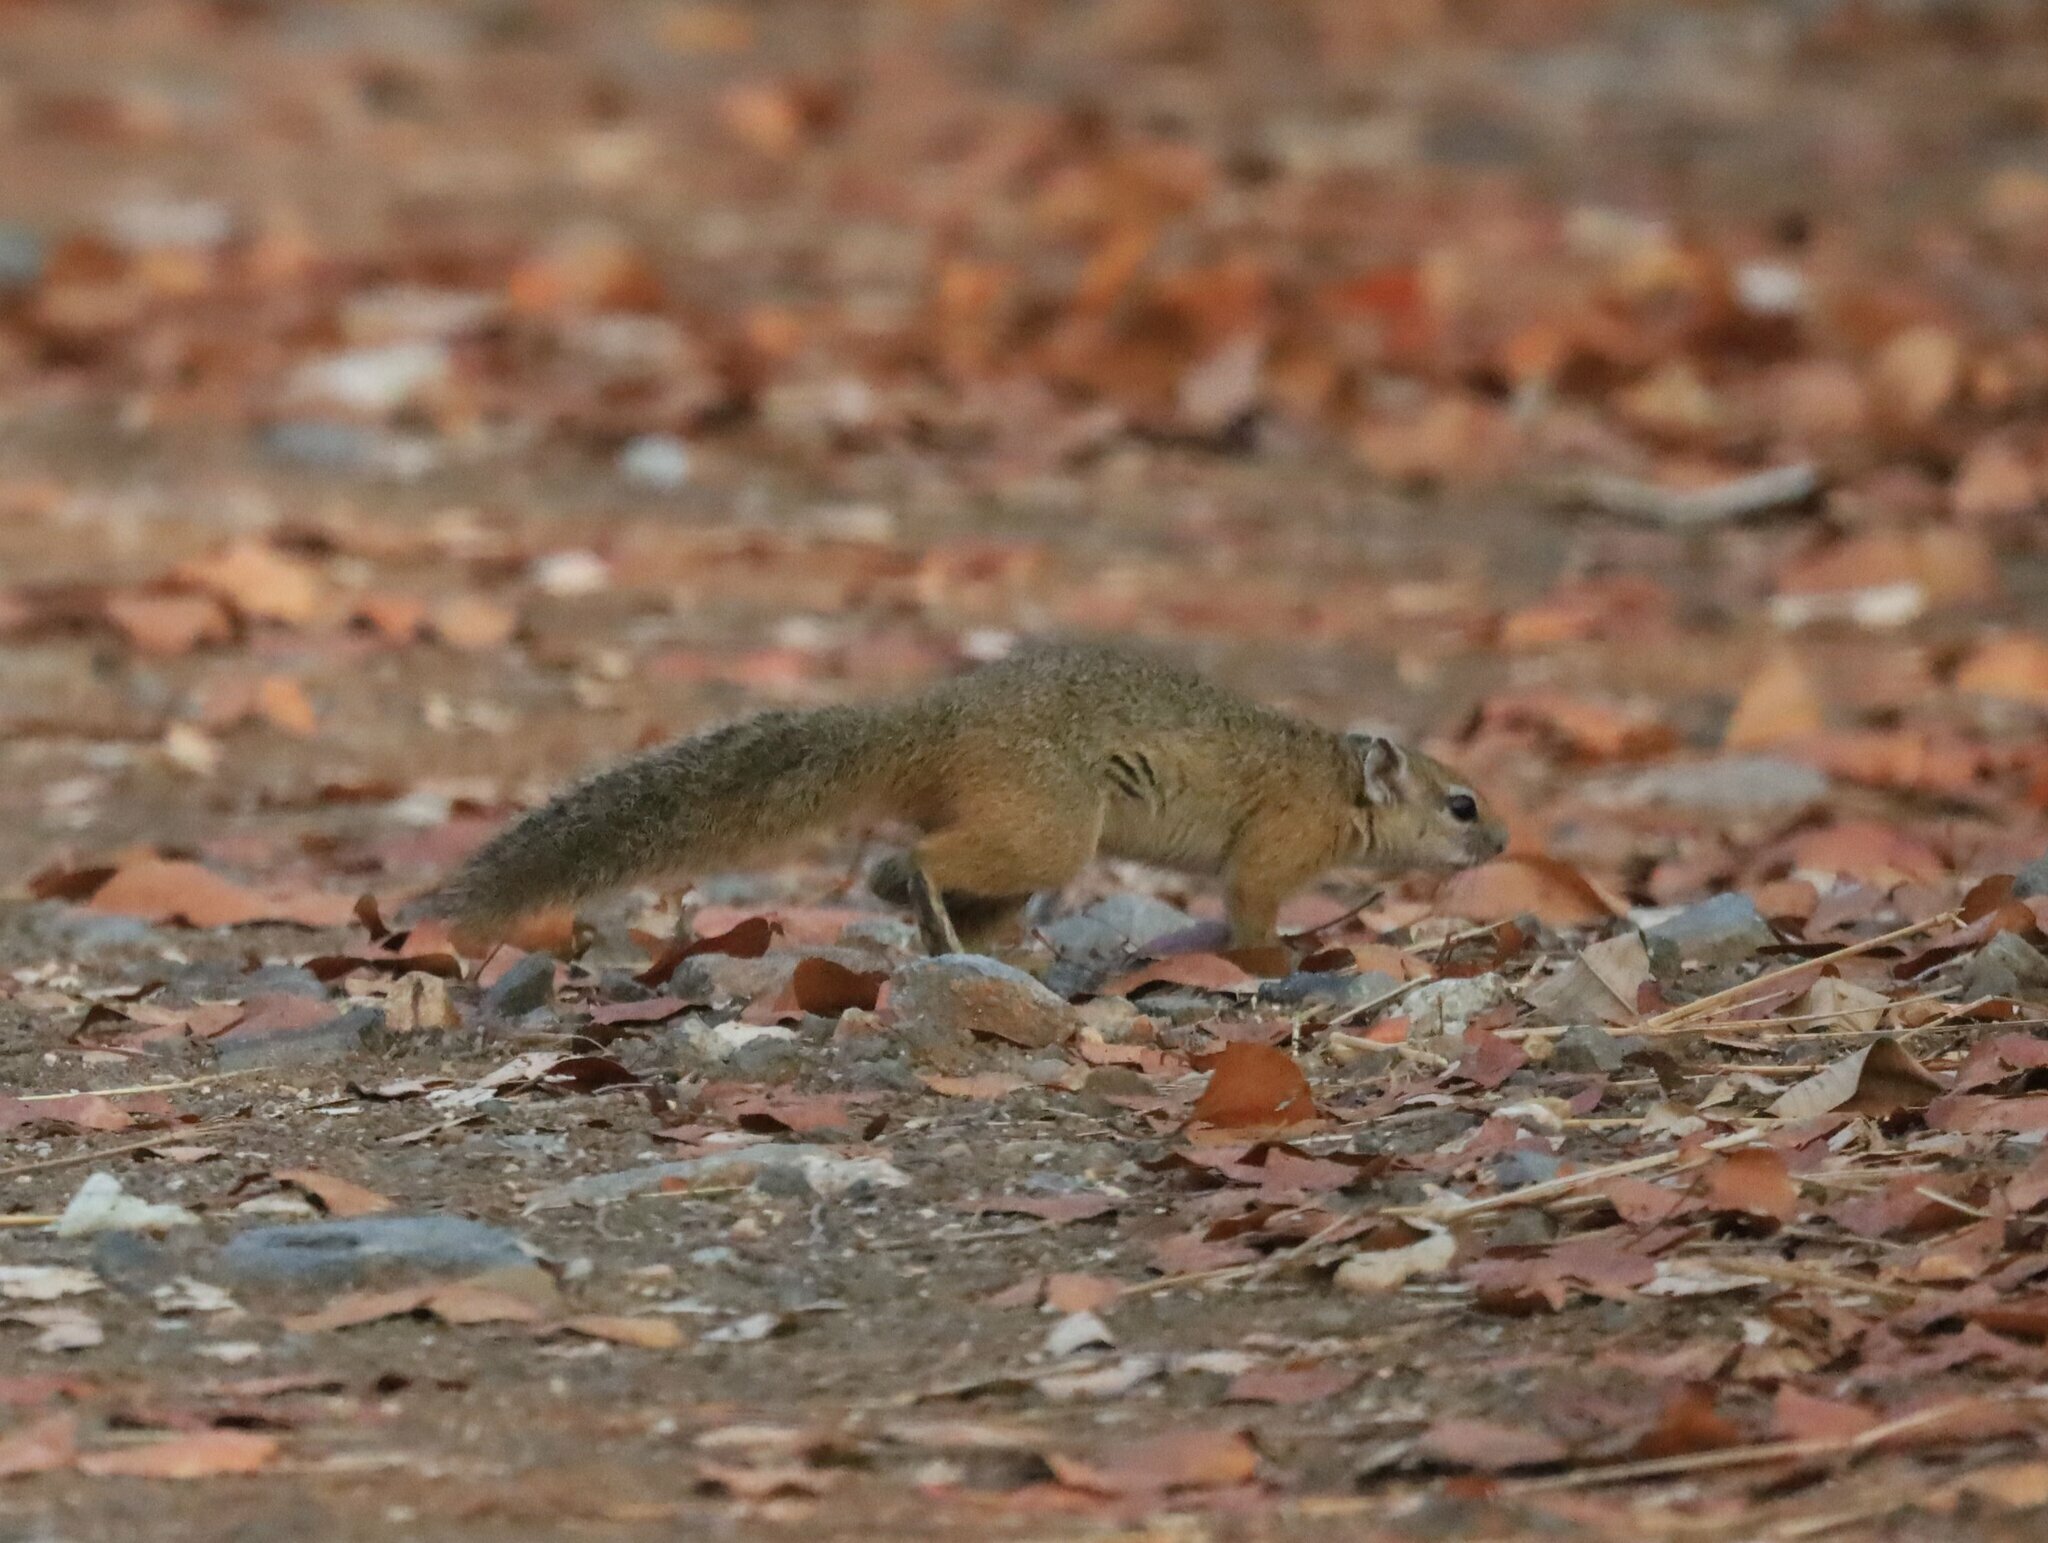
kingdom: Animalia
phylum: Chordata
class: Mammalia
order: Rodentia
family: Sciuridae
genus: Paraxerus
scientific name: Paraxerus cepapi
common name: Smith's bush squirrel
